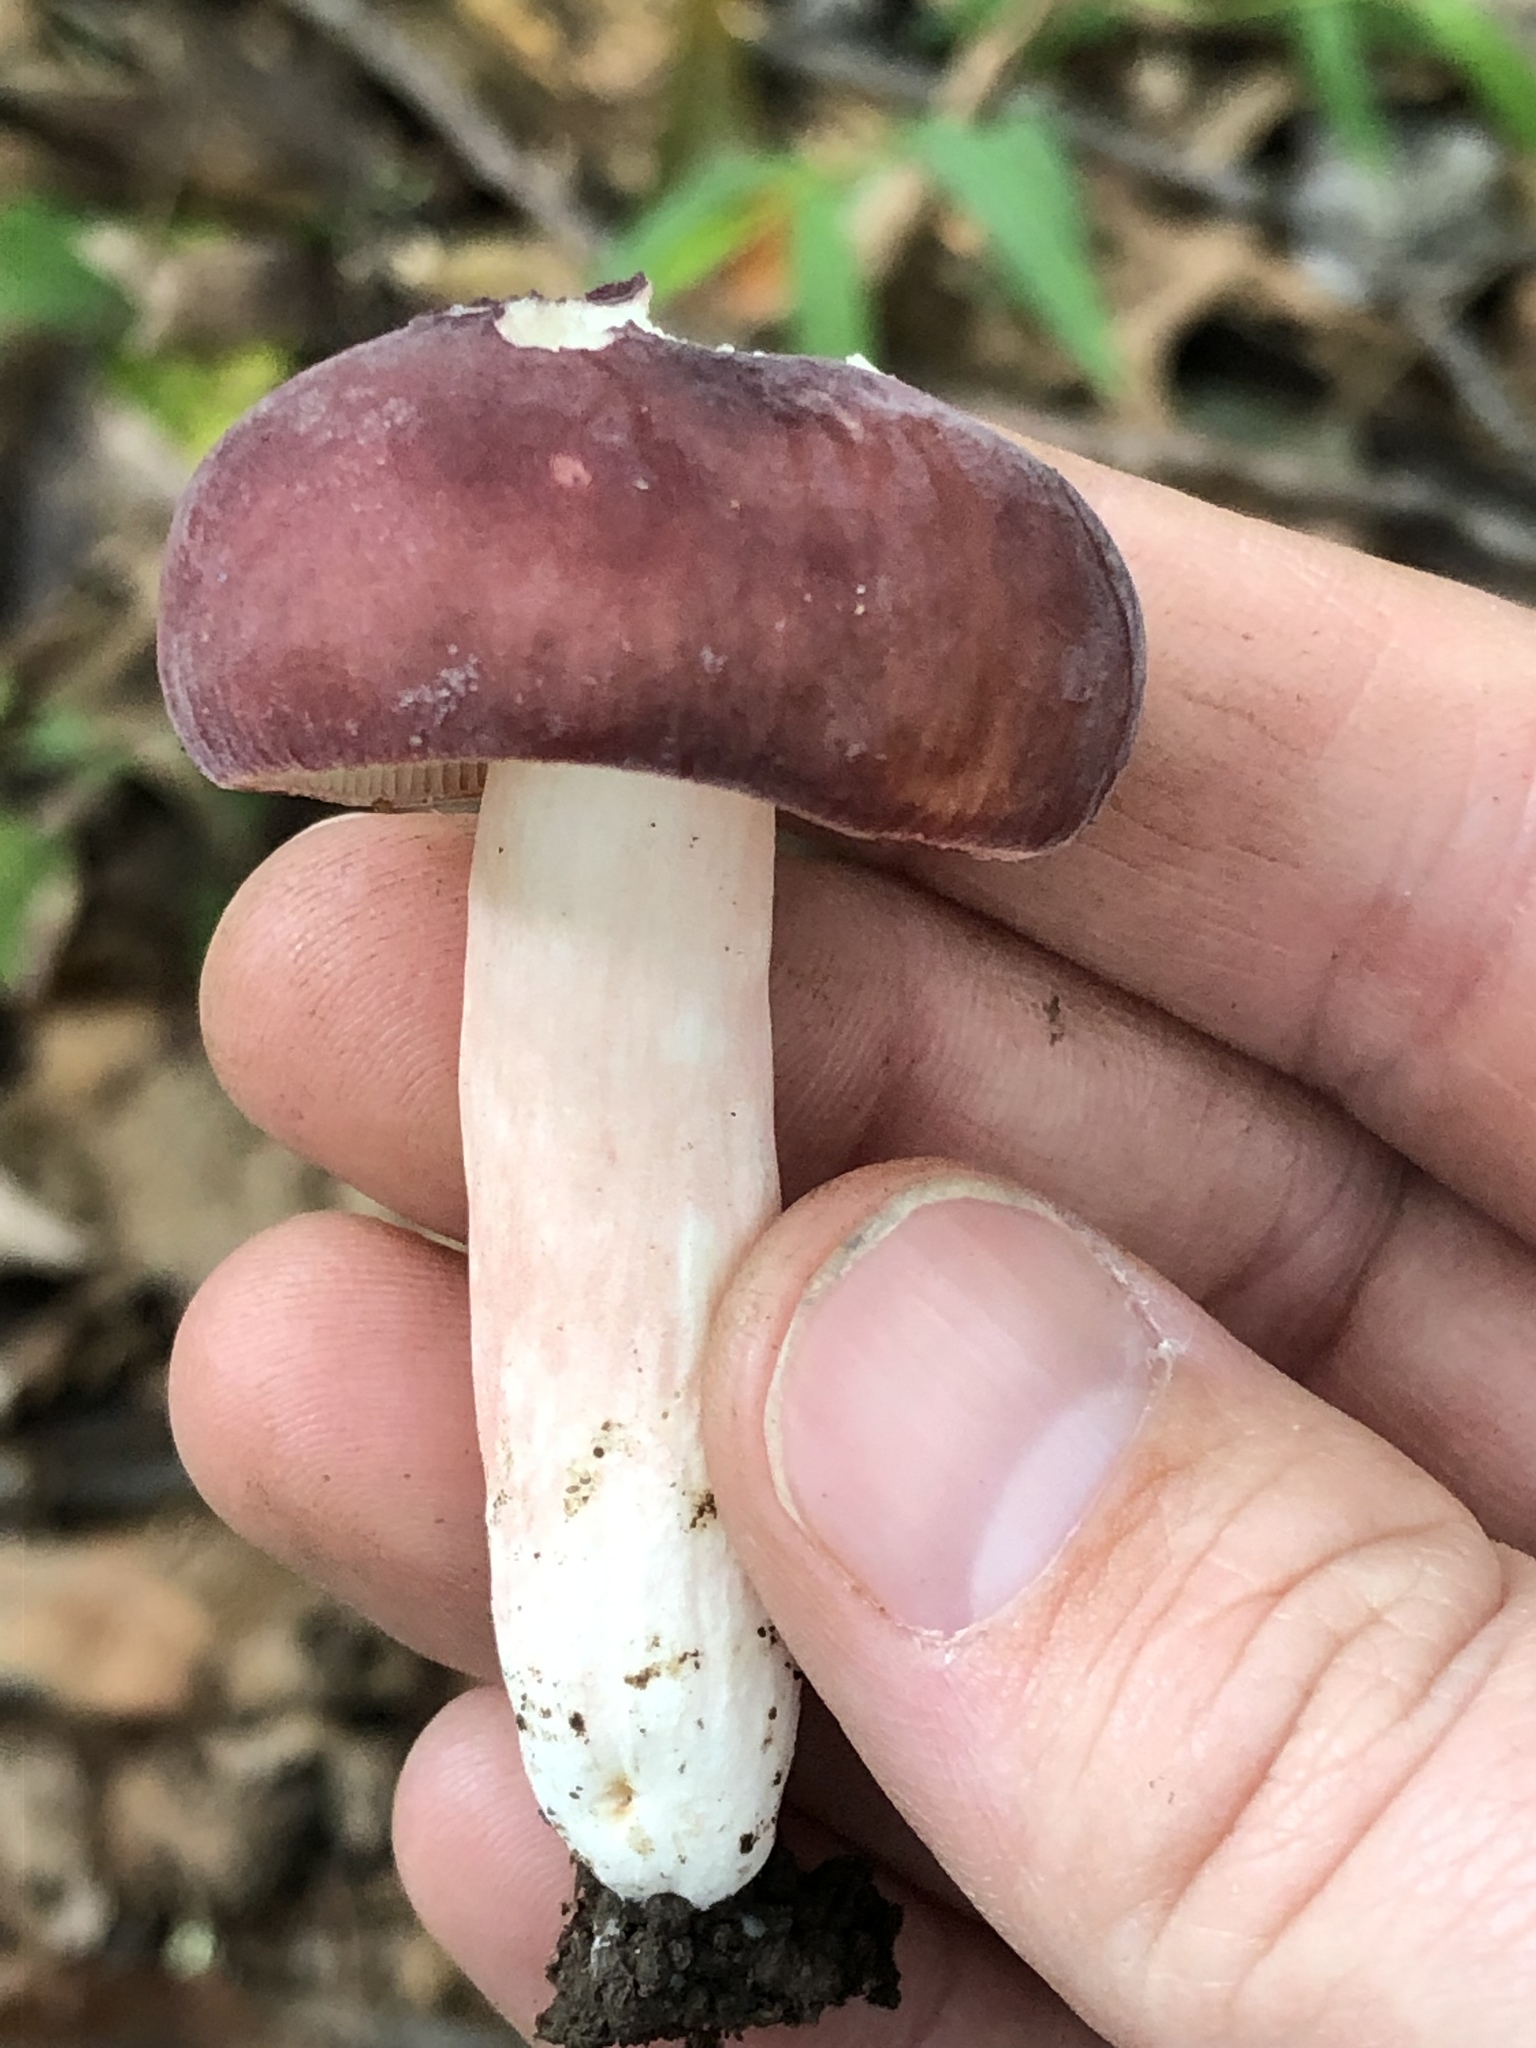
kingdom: Fungi
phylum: Basidiomycota
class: Agaricomycetes
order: Russulales
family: Russulaceae
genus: Russula
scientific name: Russula mariae
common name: Purple-bloom russula
